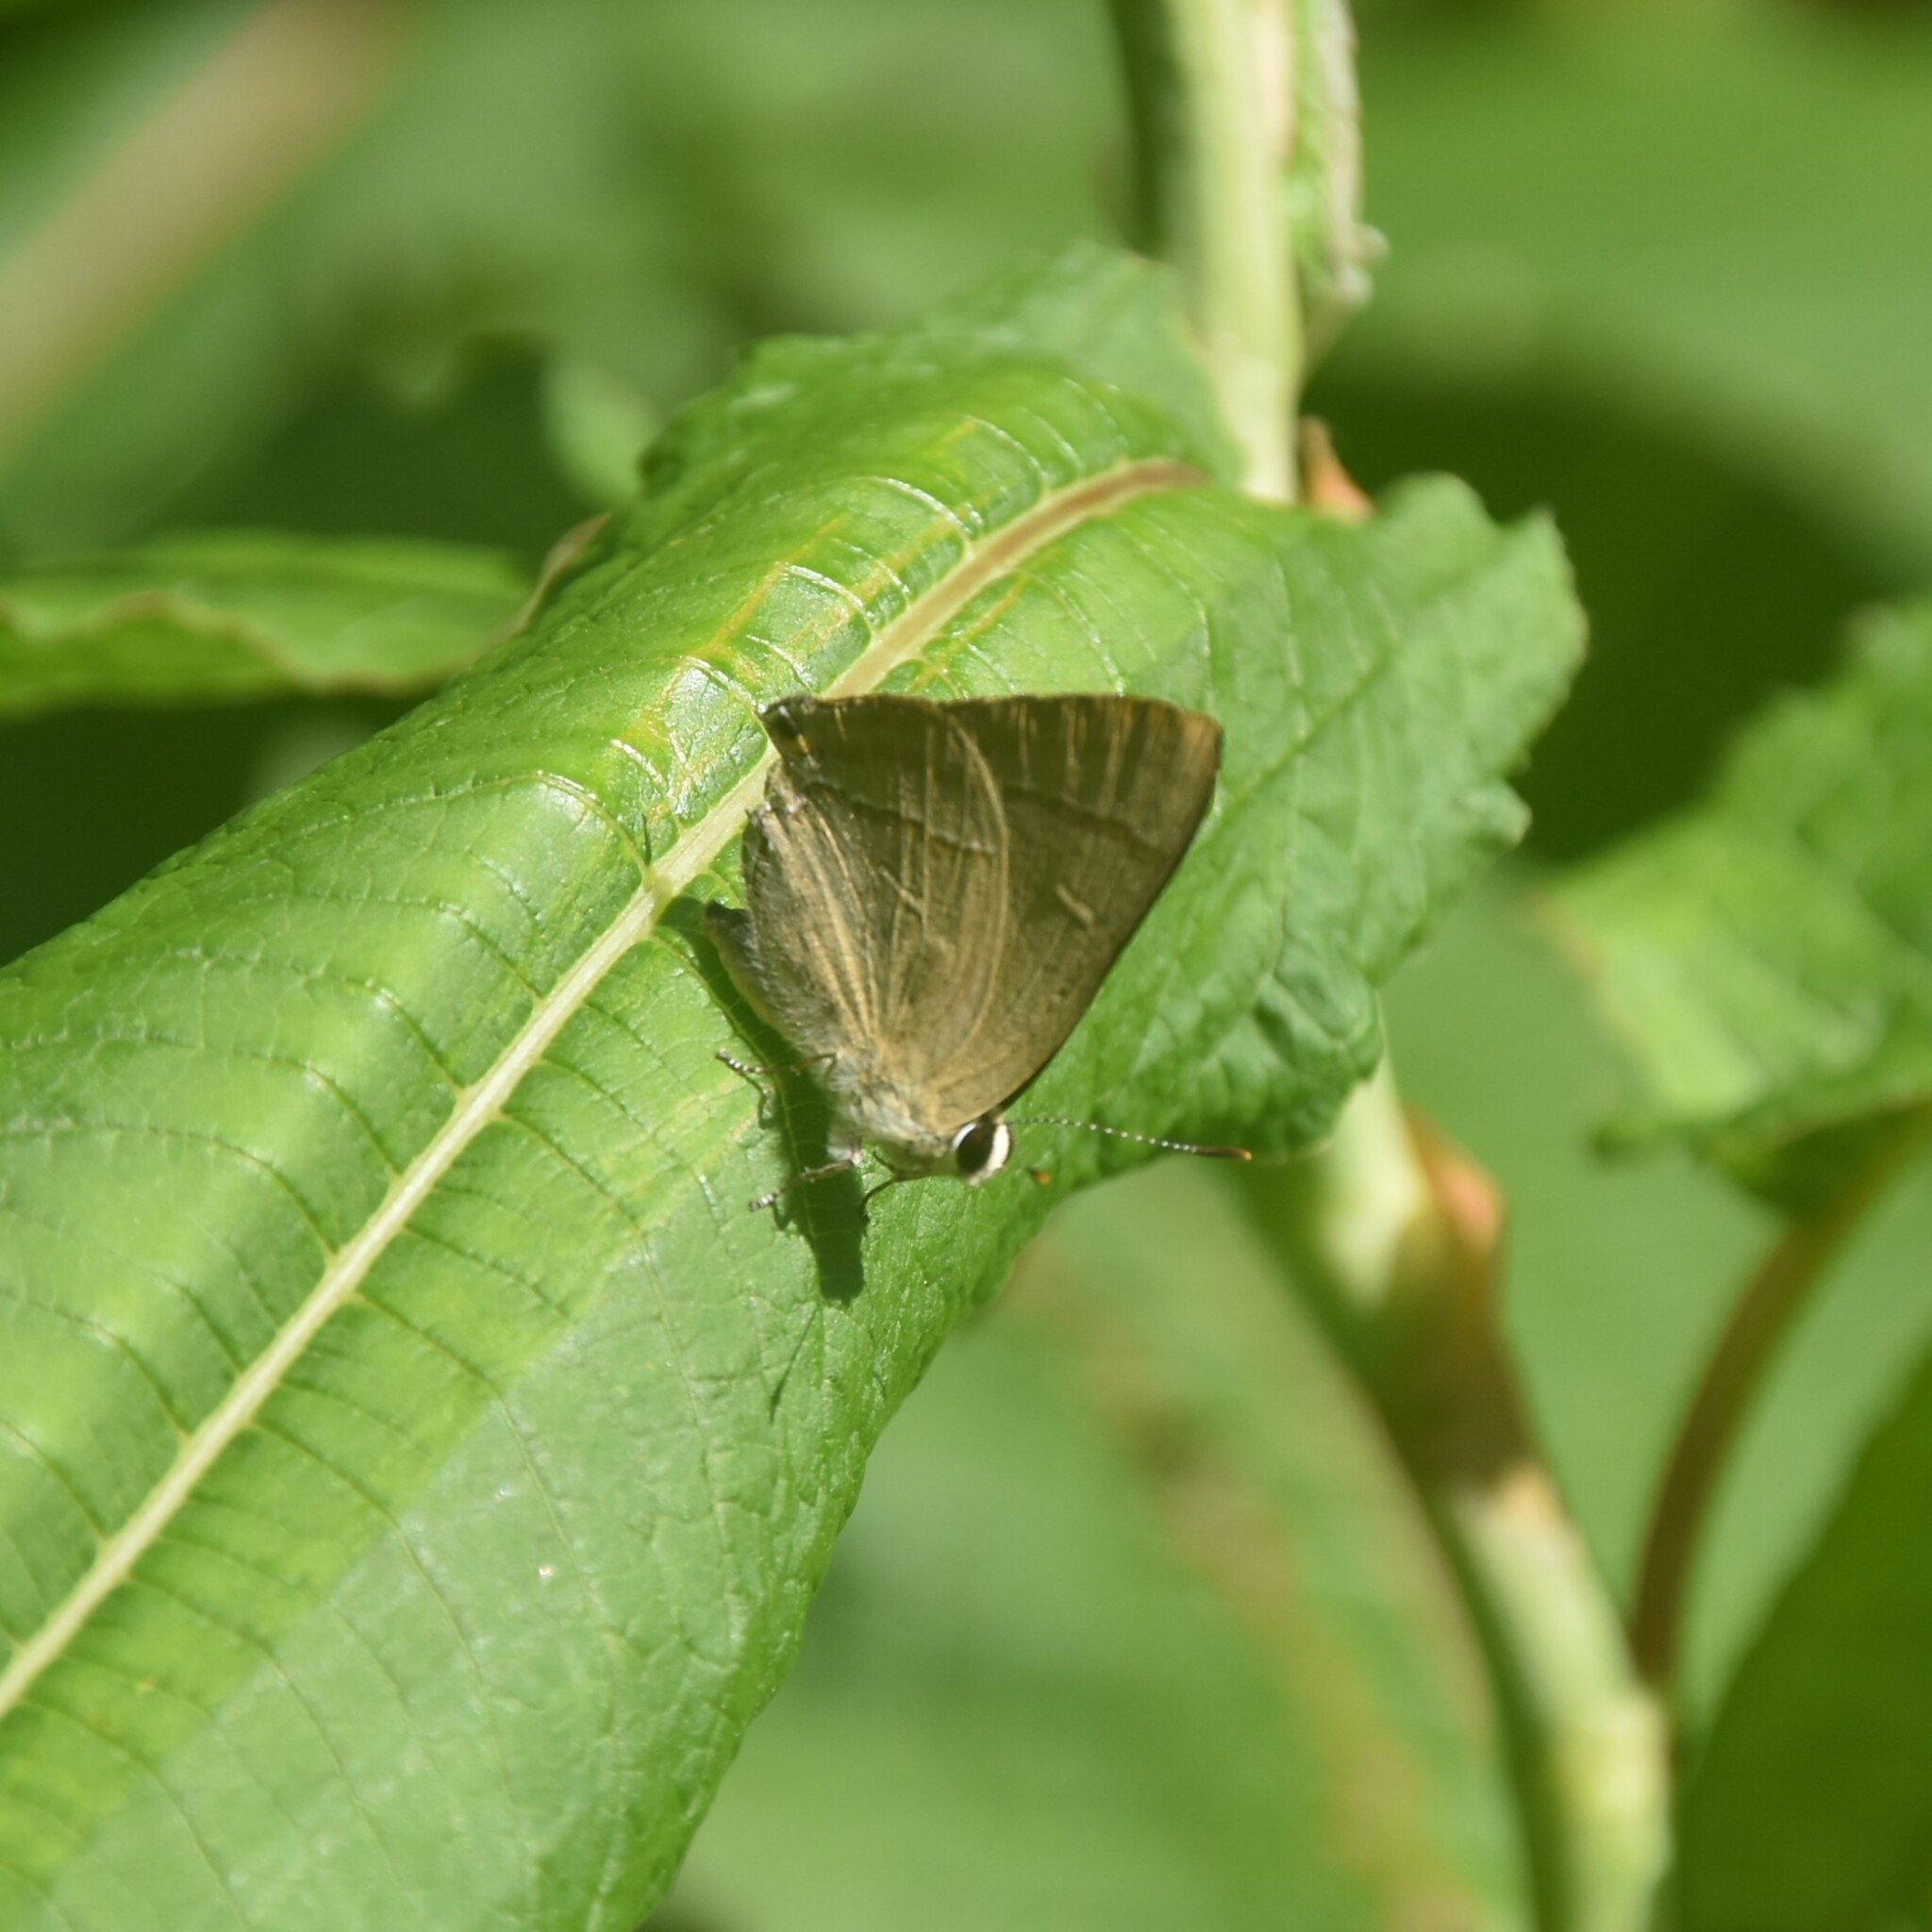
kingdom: Animalia
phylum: Arthropoda
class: Insecta
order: Lepidoptera
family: Lycaenidae
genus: Rapala
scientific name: Rapala nissa
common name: Common flash
